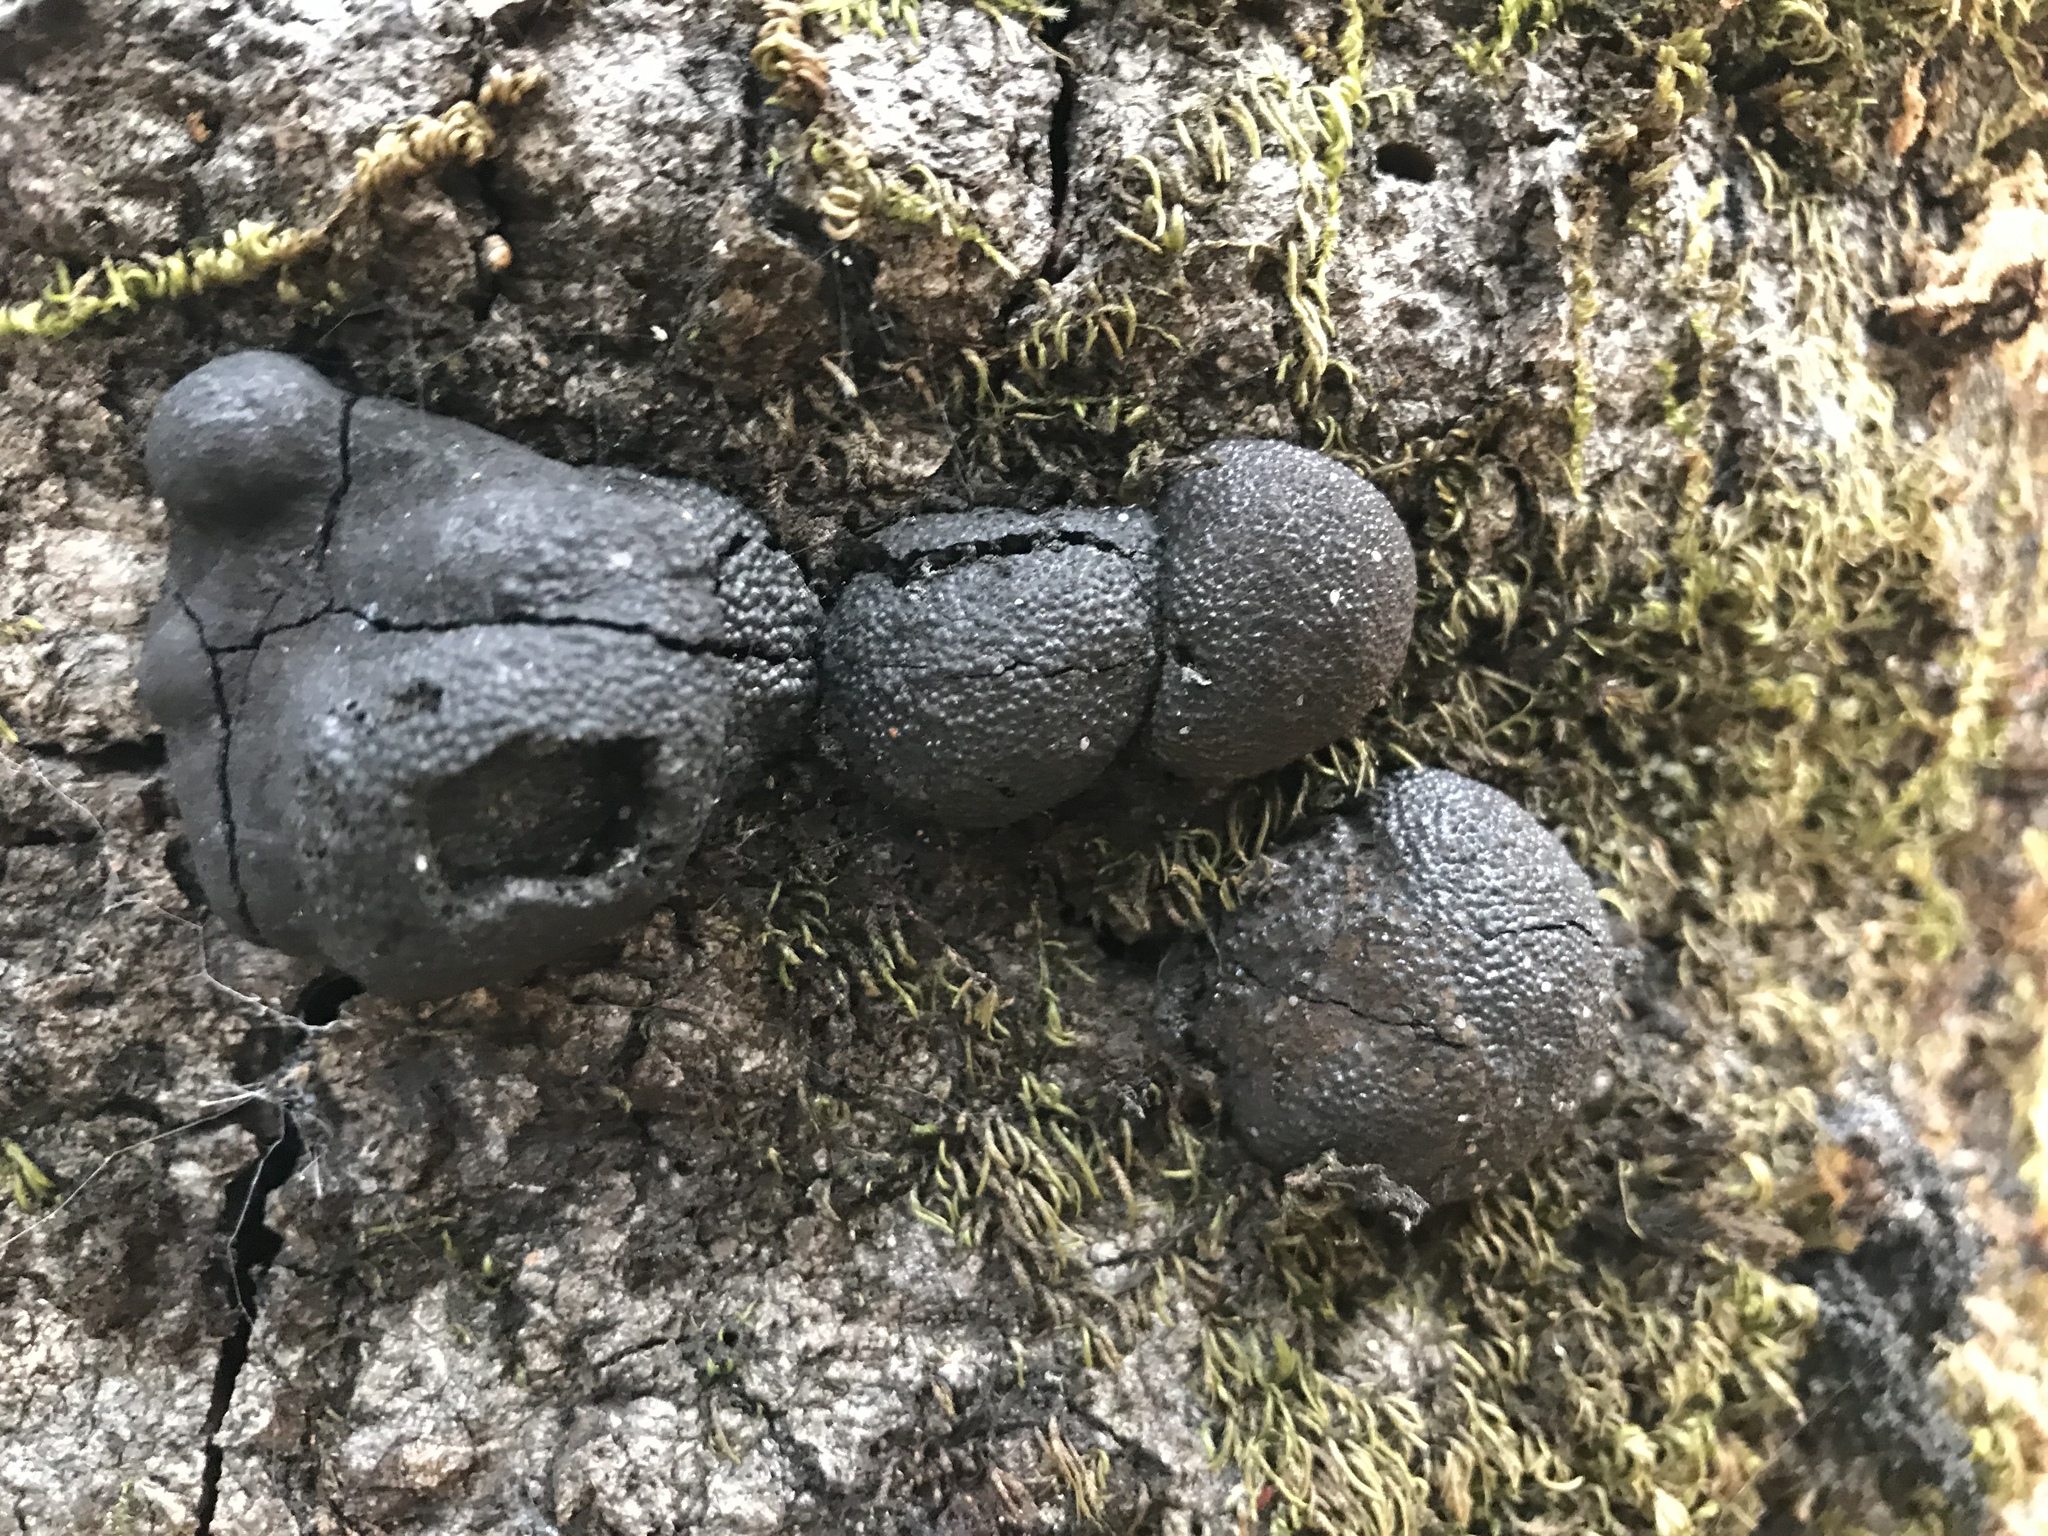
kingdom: Fungi
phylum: Ascomycota
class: Sordariomycetes
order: Xylariales
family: Hypoxylaceae
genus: Annulohypoxylon
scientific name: Annulohypoxylon thouarsianum
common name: Cramp balls
